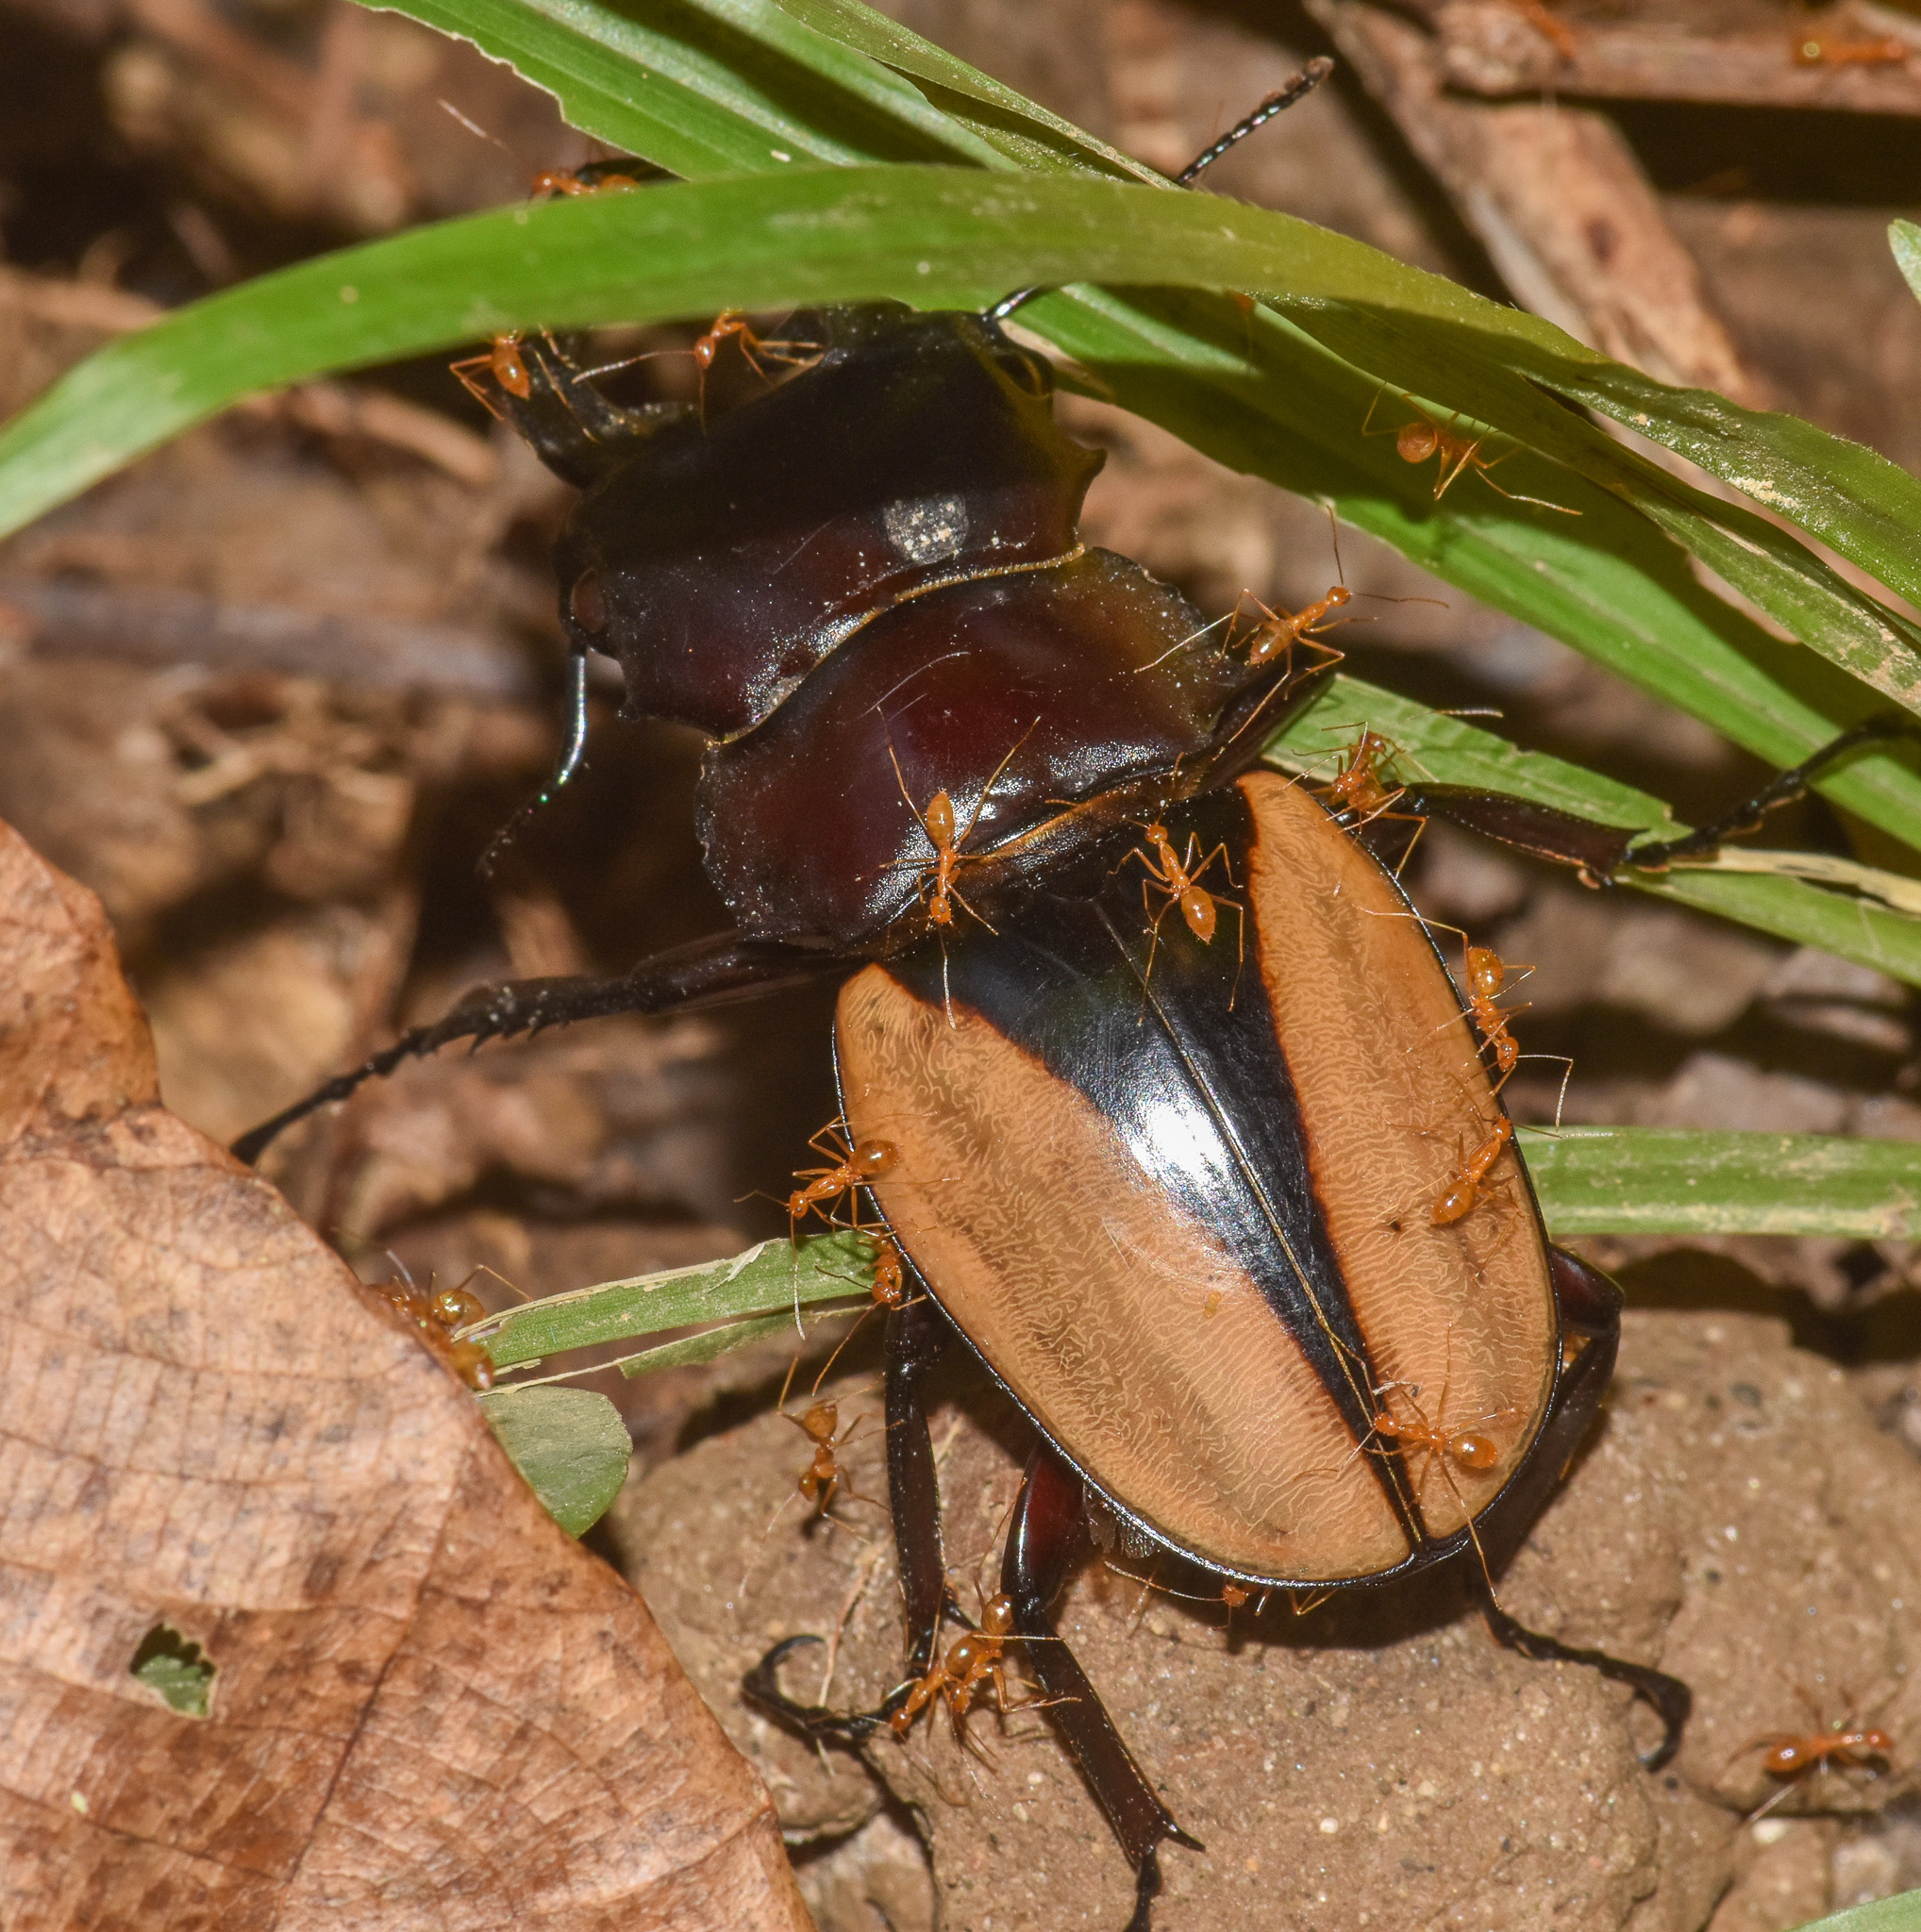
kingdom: Animalia
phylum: Arthropoda
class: Insecta
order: Coleoptera
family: Lucanidae
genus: Odontolabis
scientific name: Odontolabis cuvera
